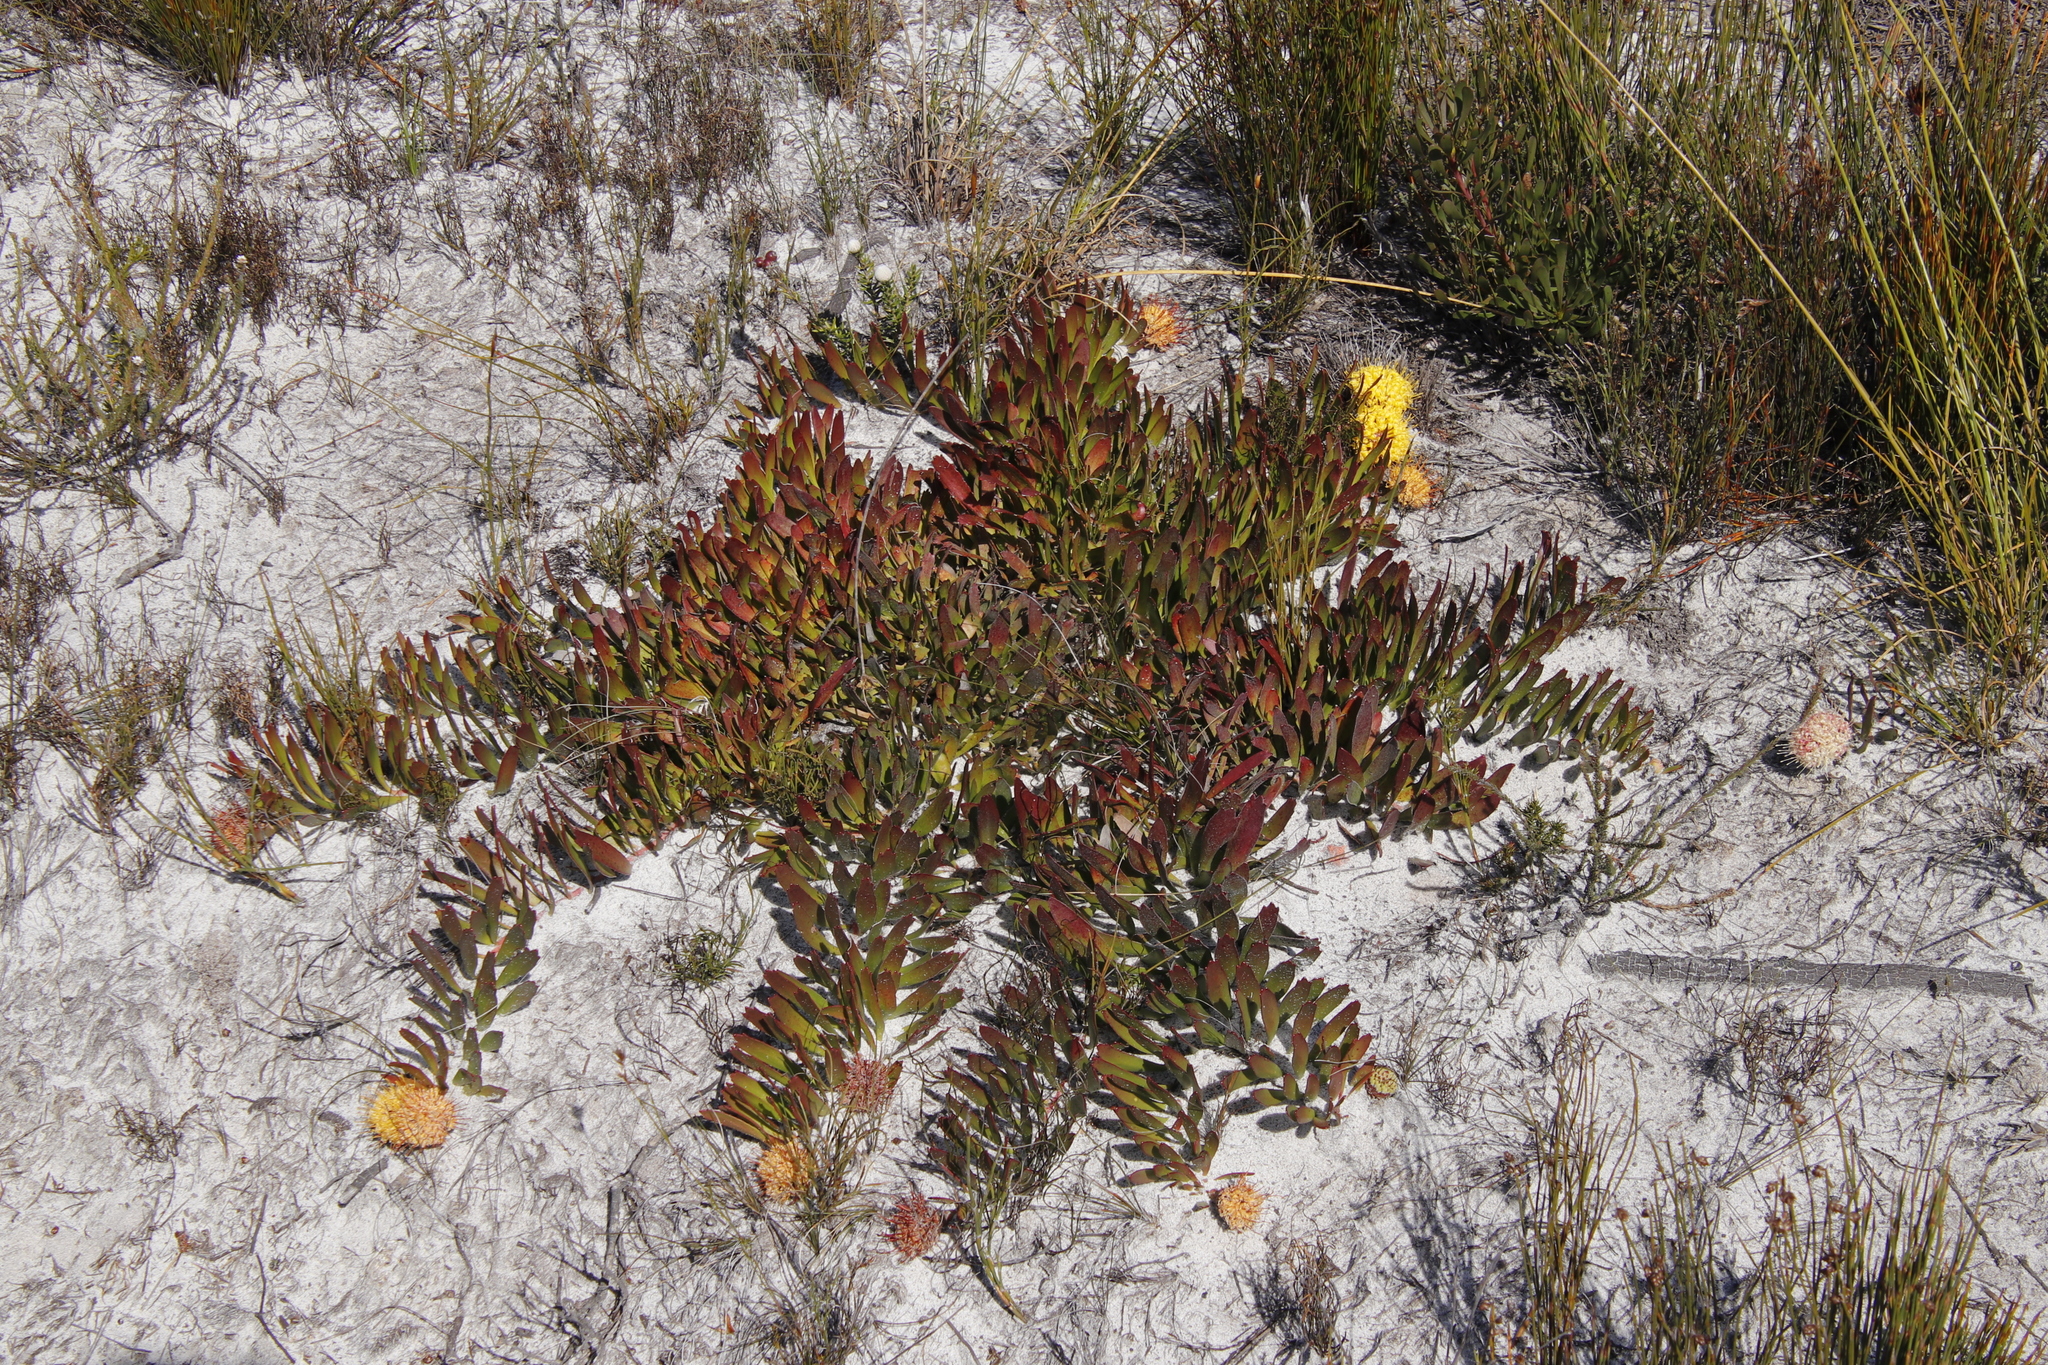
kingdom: Plantae
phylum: Tracheophyta
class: Magnoliopsida
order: Proteales
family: Proteaceae
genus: Leucospermum
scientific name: Leucospermum hypophyllocarpodendron
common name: Snakestem pincushion
